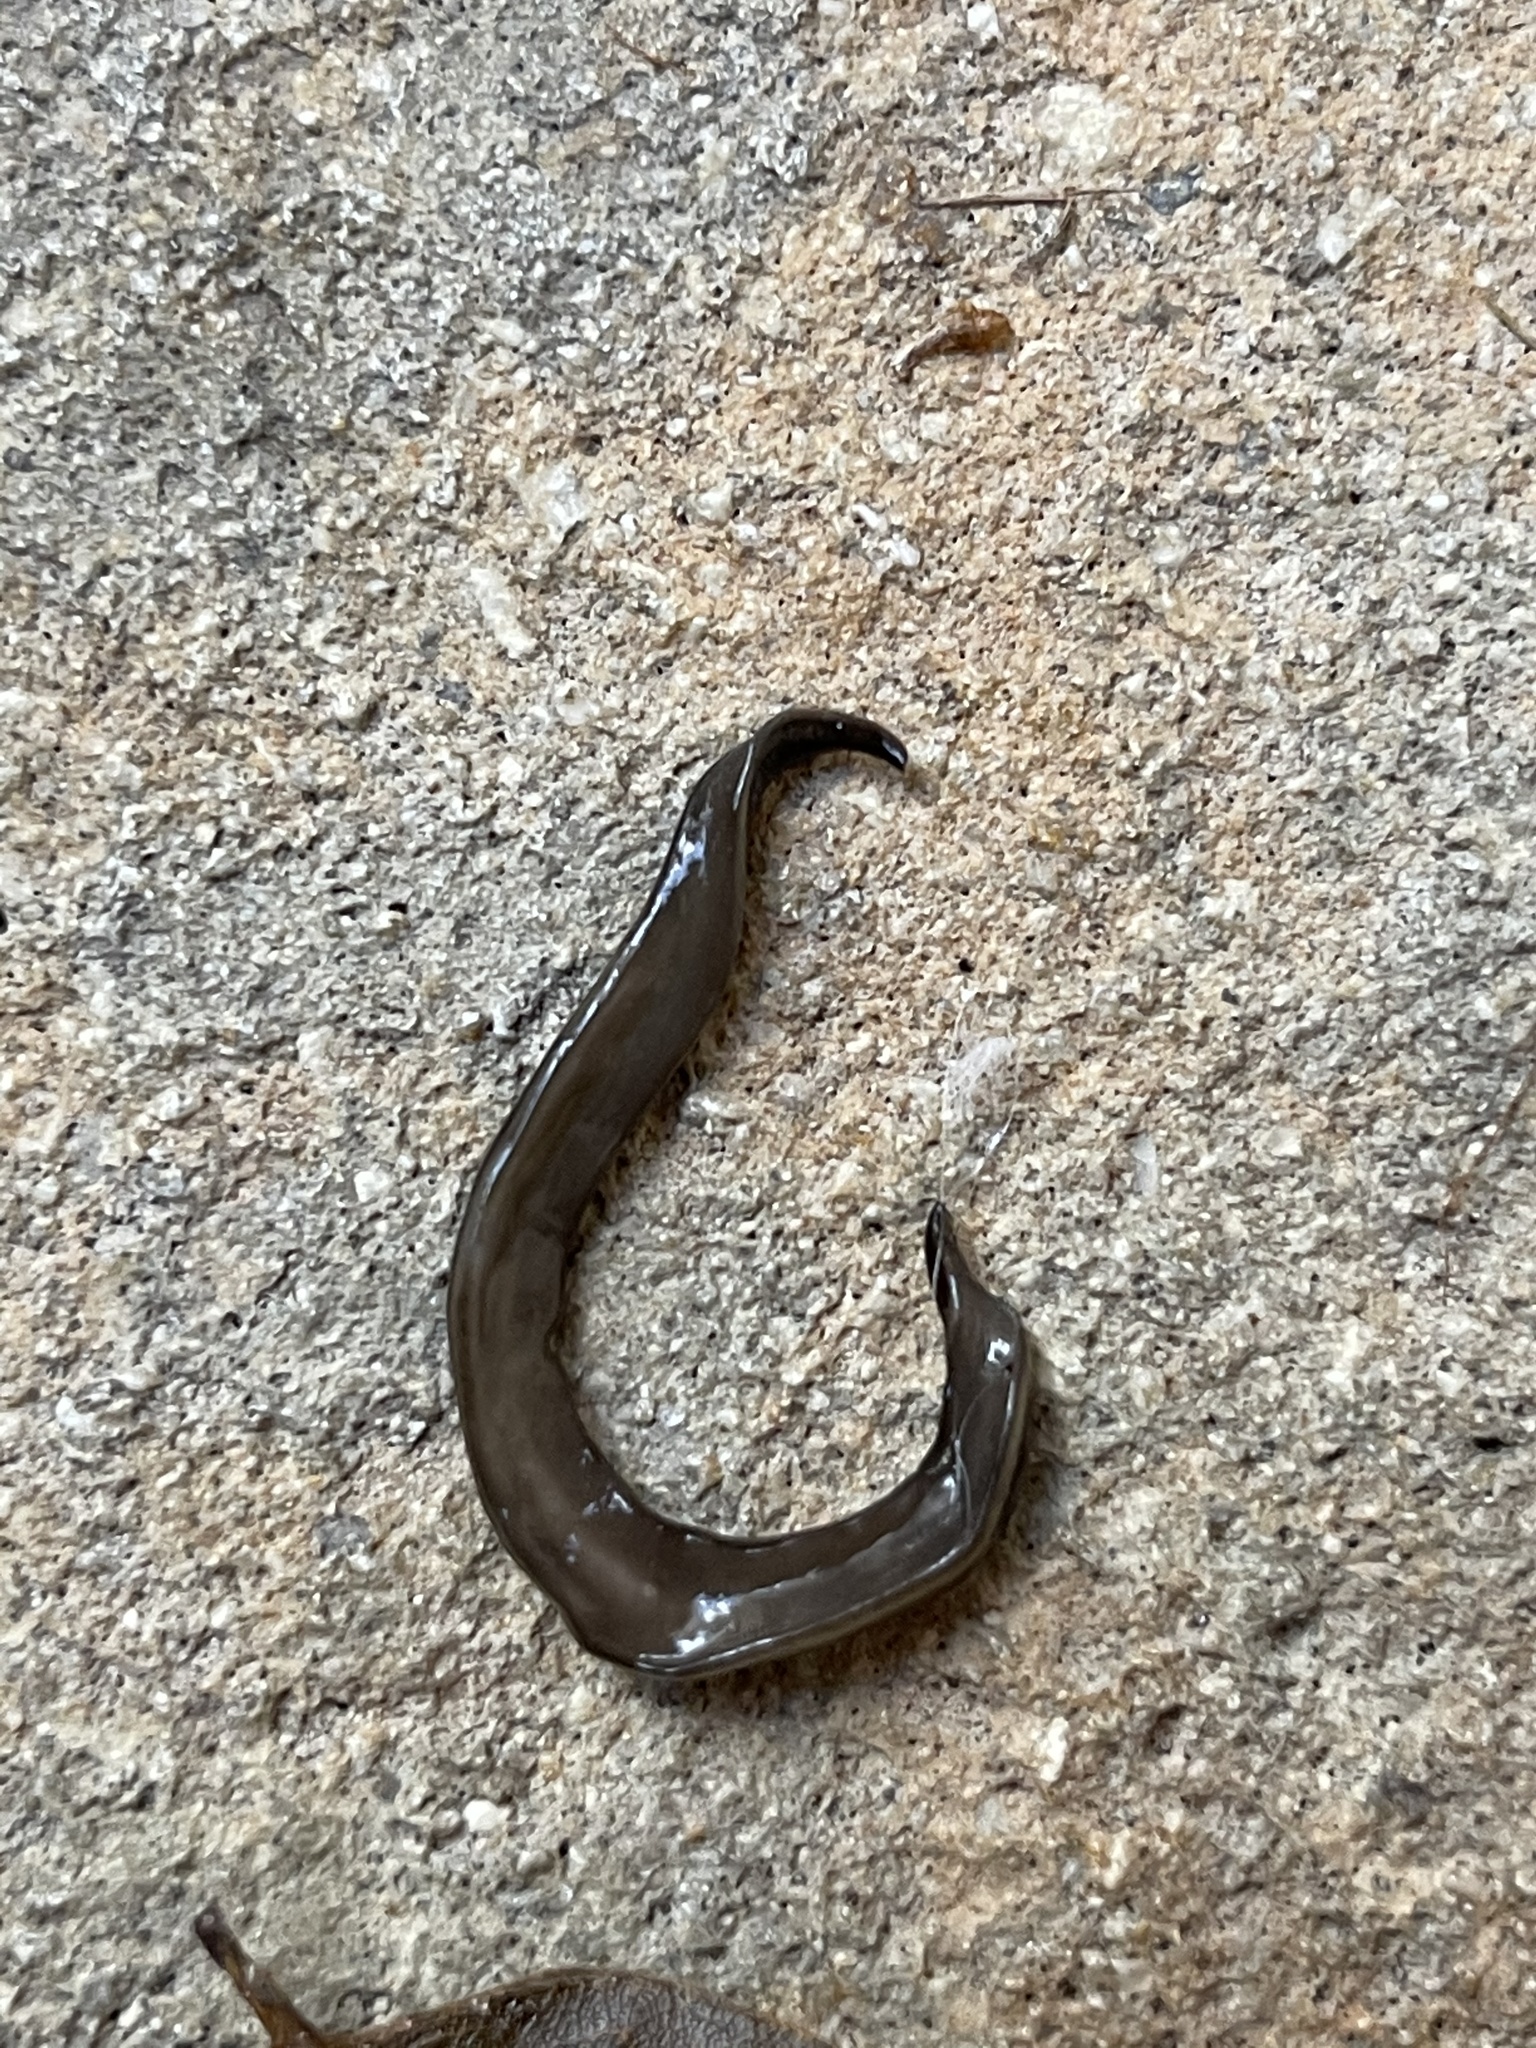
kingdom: Animalia
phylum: Platyhelminthes
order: Tricladida
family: Geoplanidae
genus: Platydemus
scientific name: Platydemus manokwari
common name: New guinea flatworm
